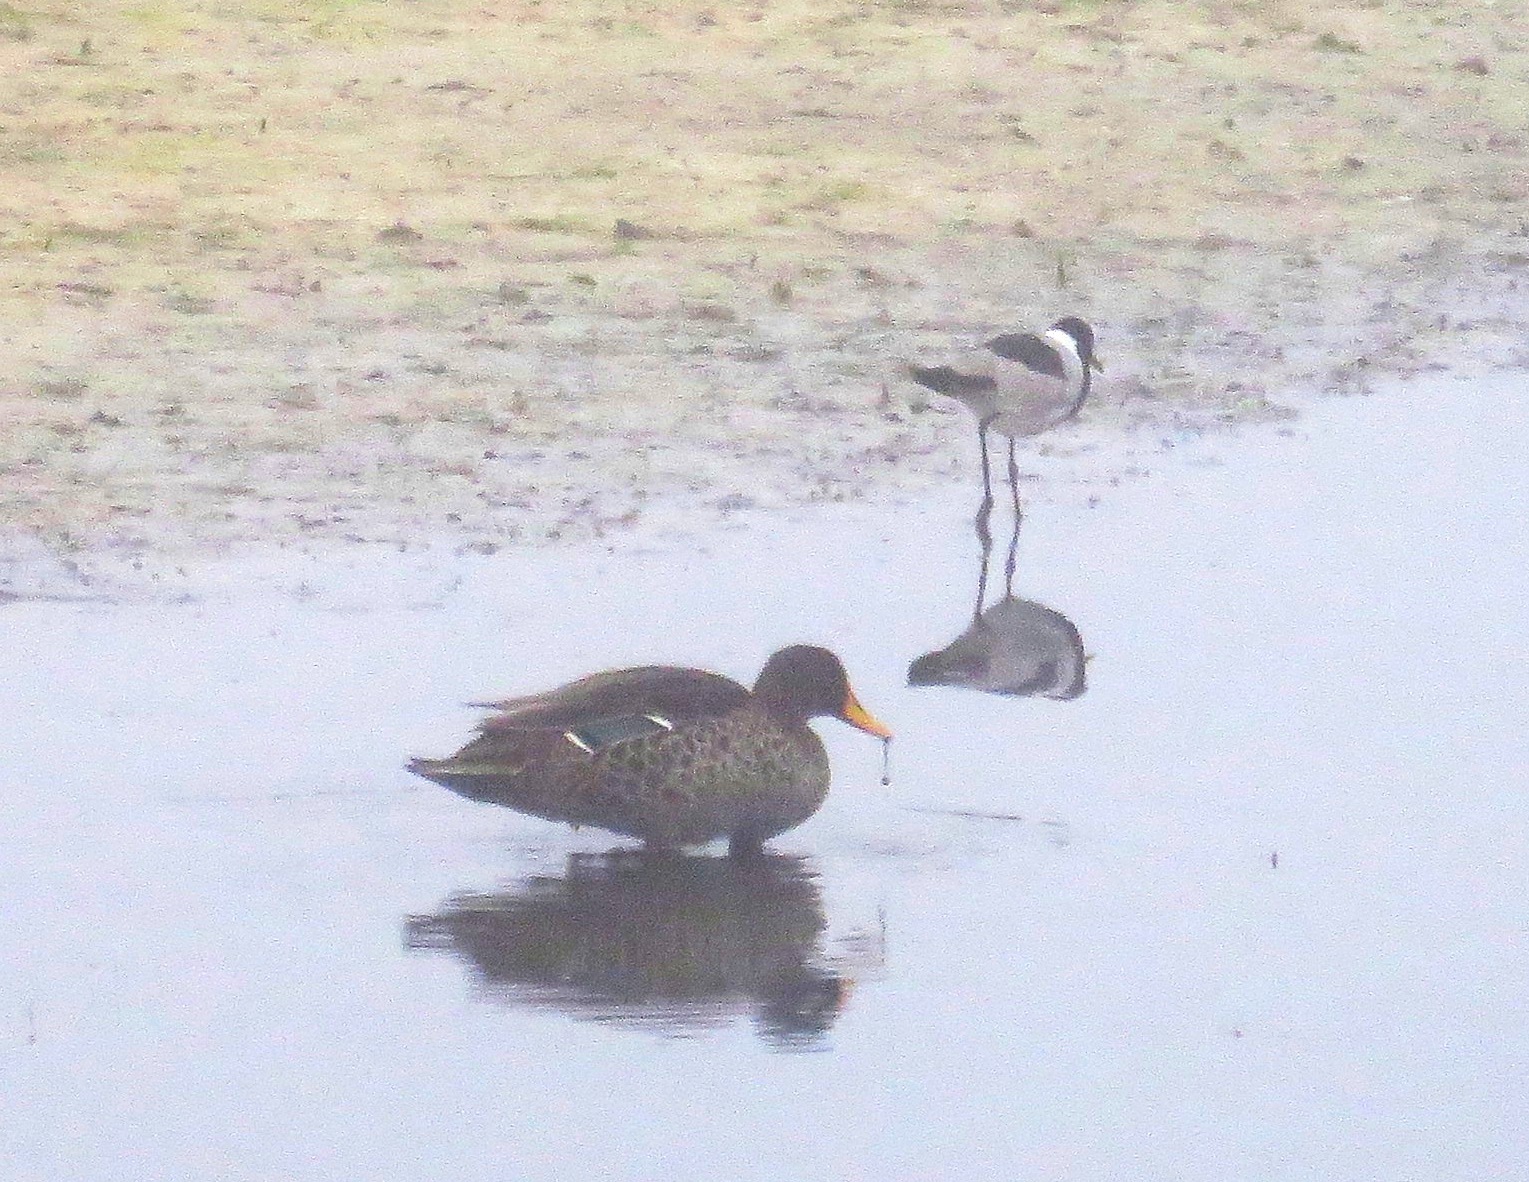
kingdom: Animalia
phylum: Chordata
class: Aves
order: Anseriformes
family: Anatidae
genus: Anas
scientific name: Anas undulata
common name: Yellow-billed duck
